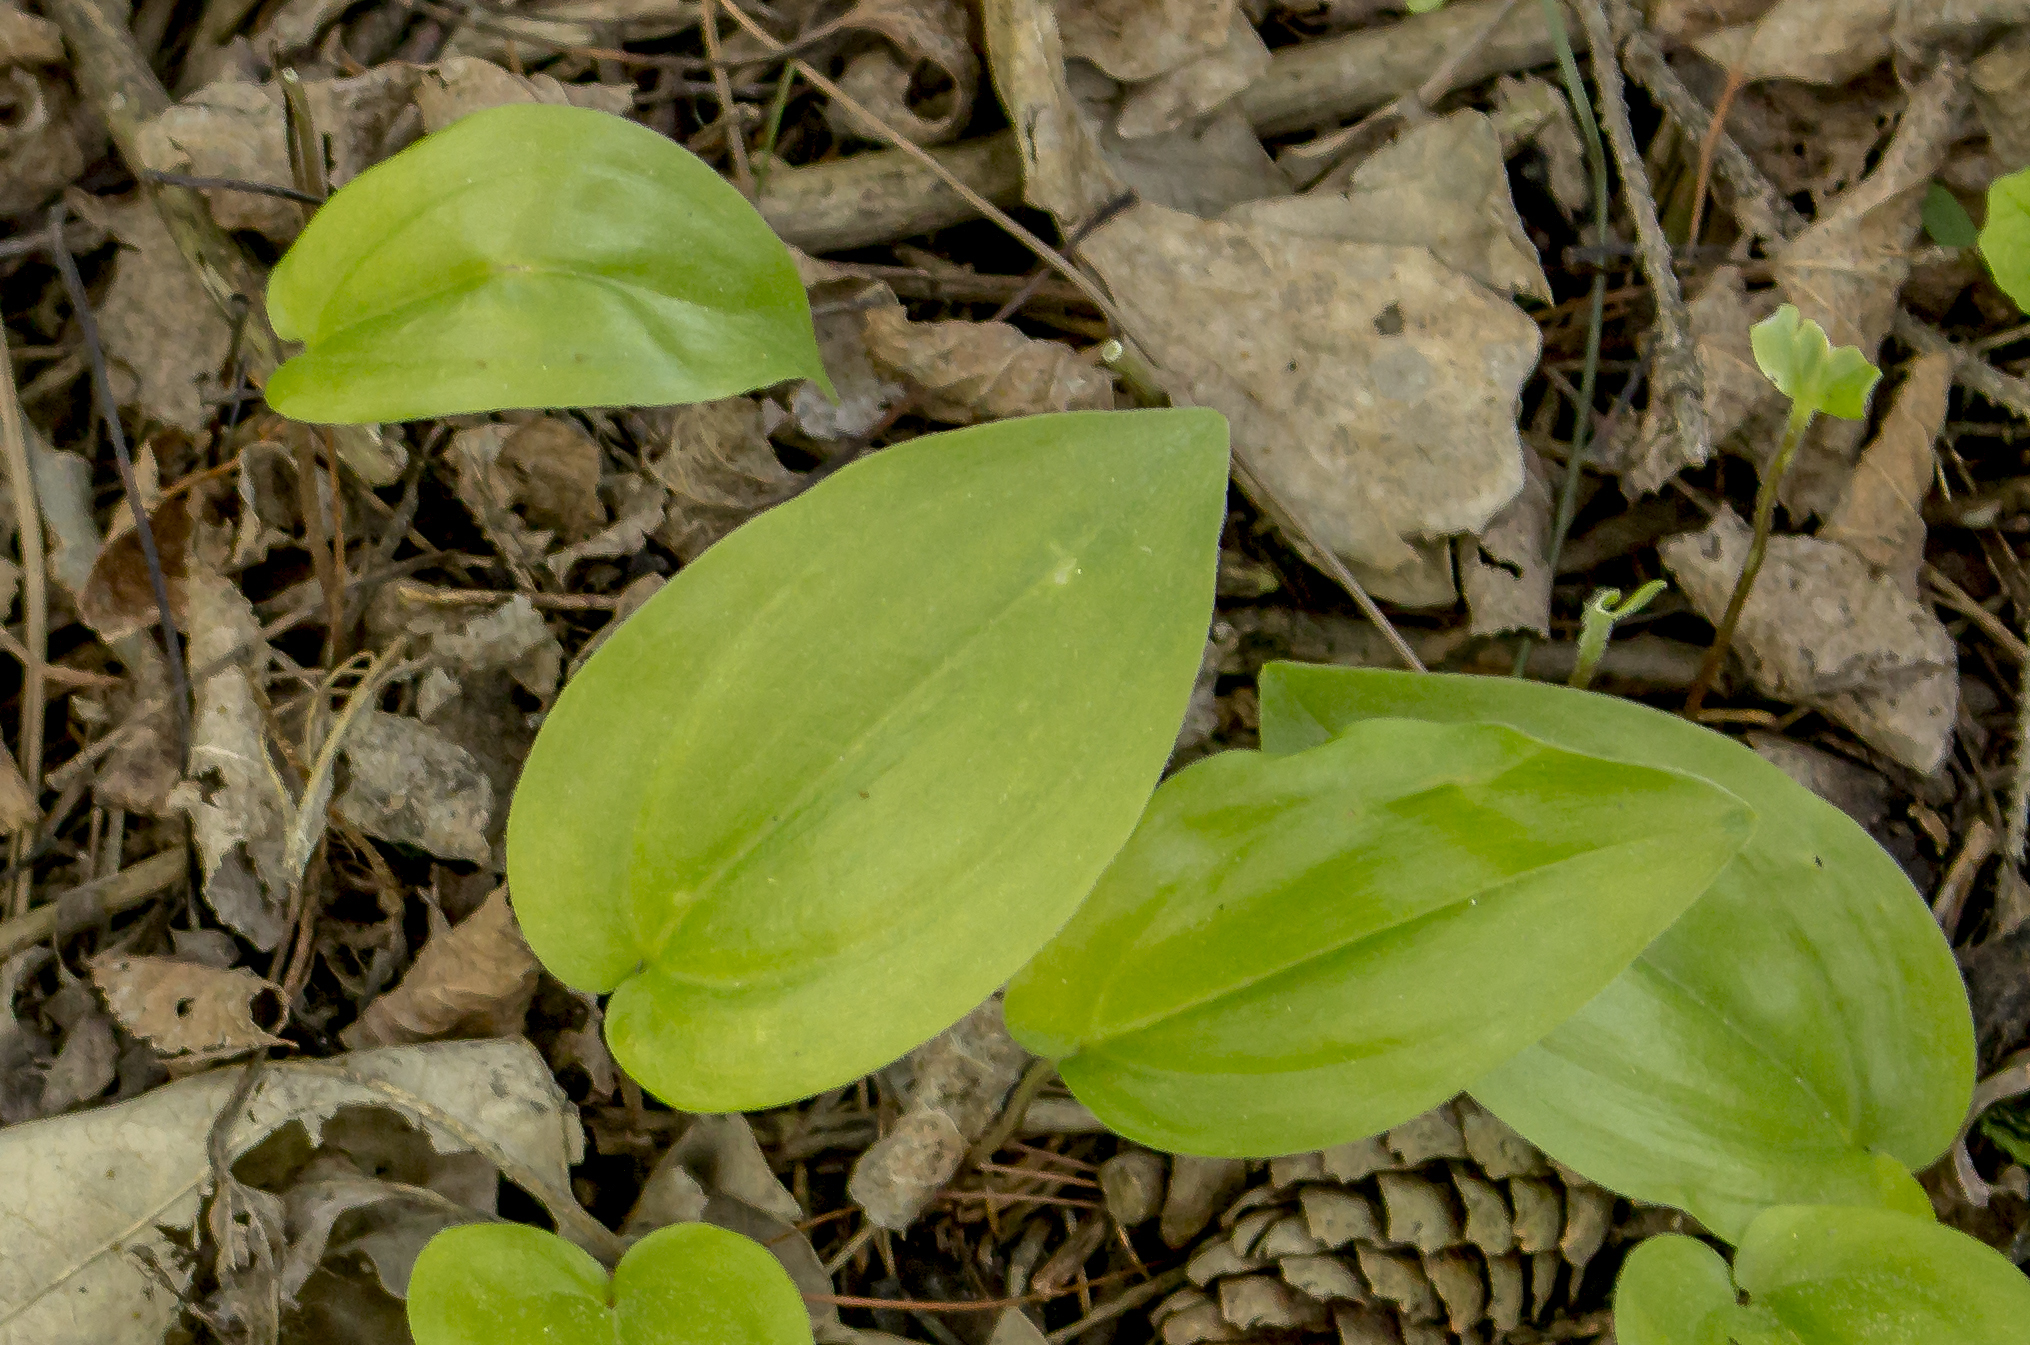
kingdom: Plantae
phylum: Tracheophyta
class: Liliopsida
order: Asparagales
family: Asparagaceae
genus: Maianthemum
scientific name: Maianthemum canadense
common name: False lily-of-the-valley
